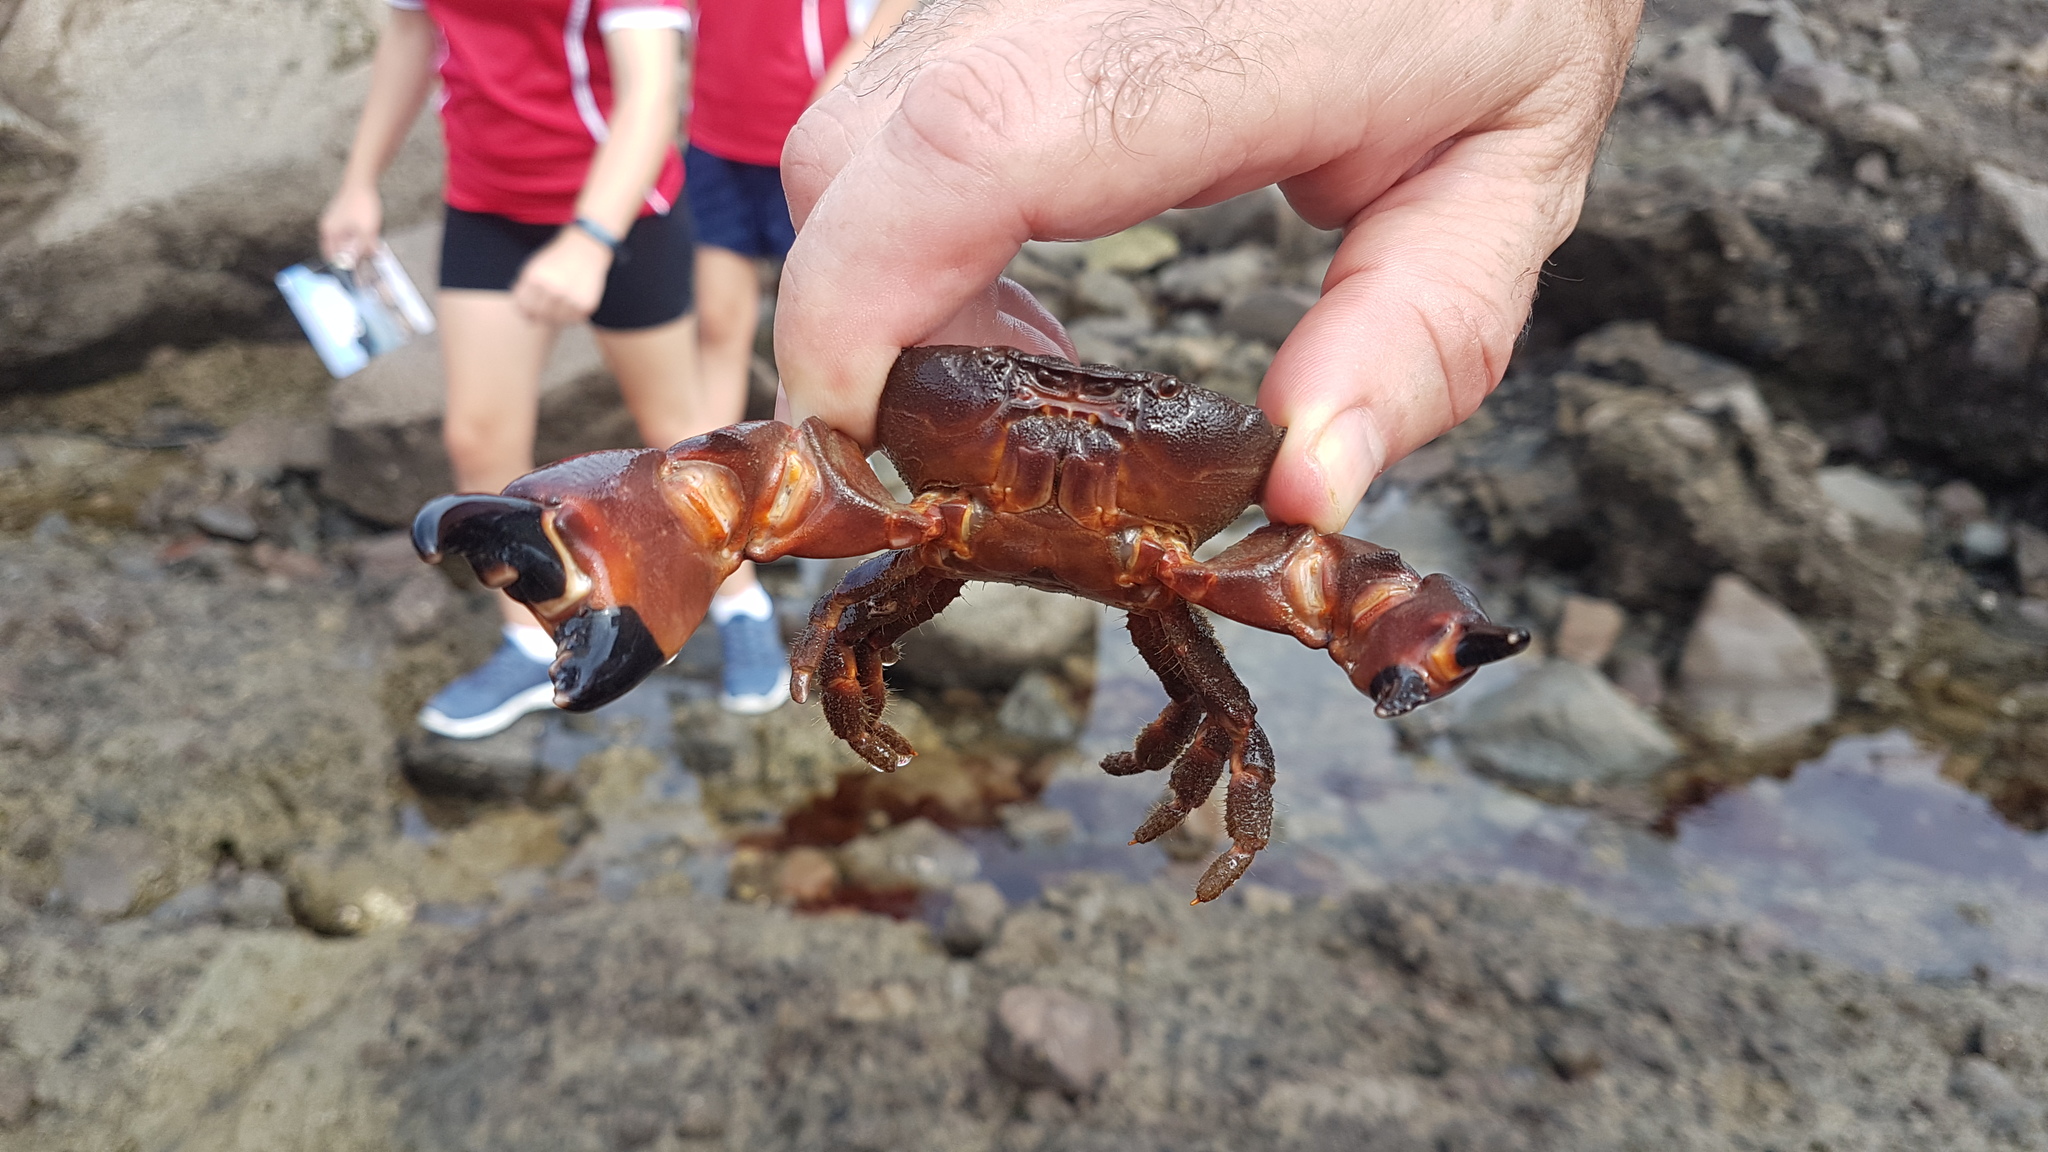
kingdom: Animalia
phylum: Arthropoda
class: Malacostraca
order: Decapoda
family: Oziidae
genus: Ozius
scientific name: Ozius deplanatus
